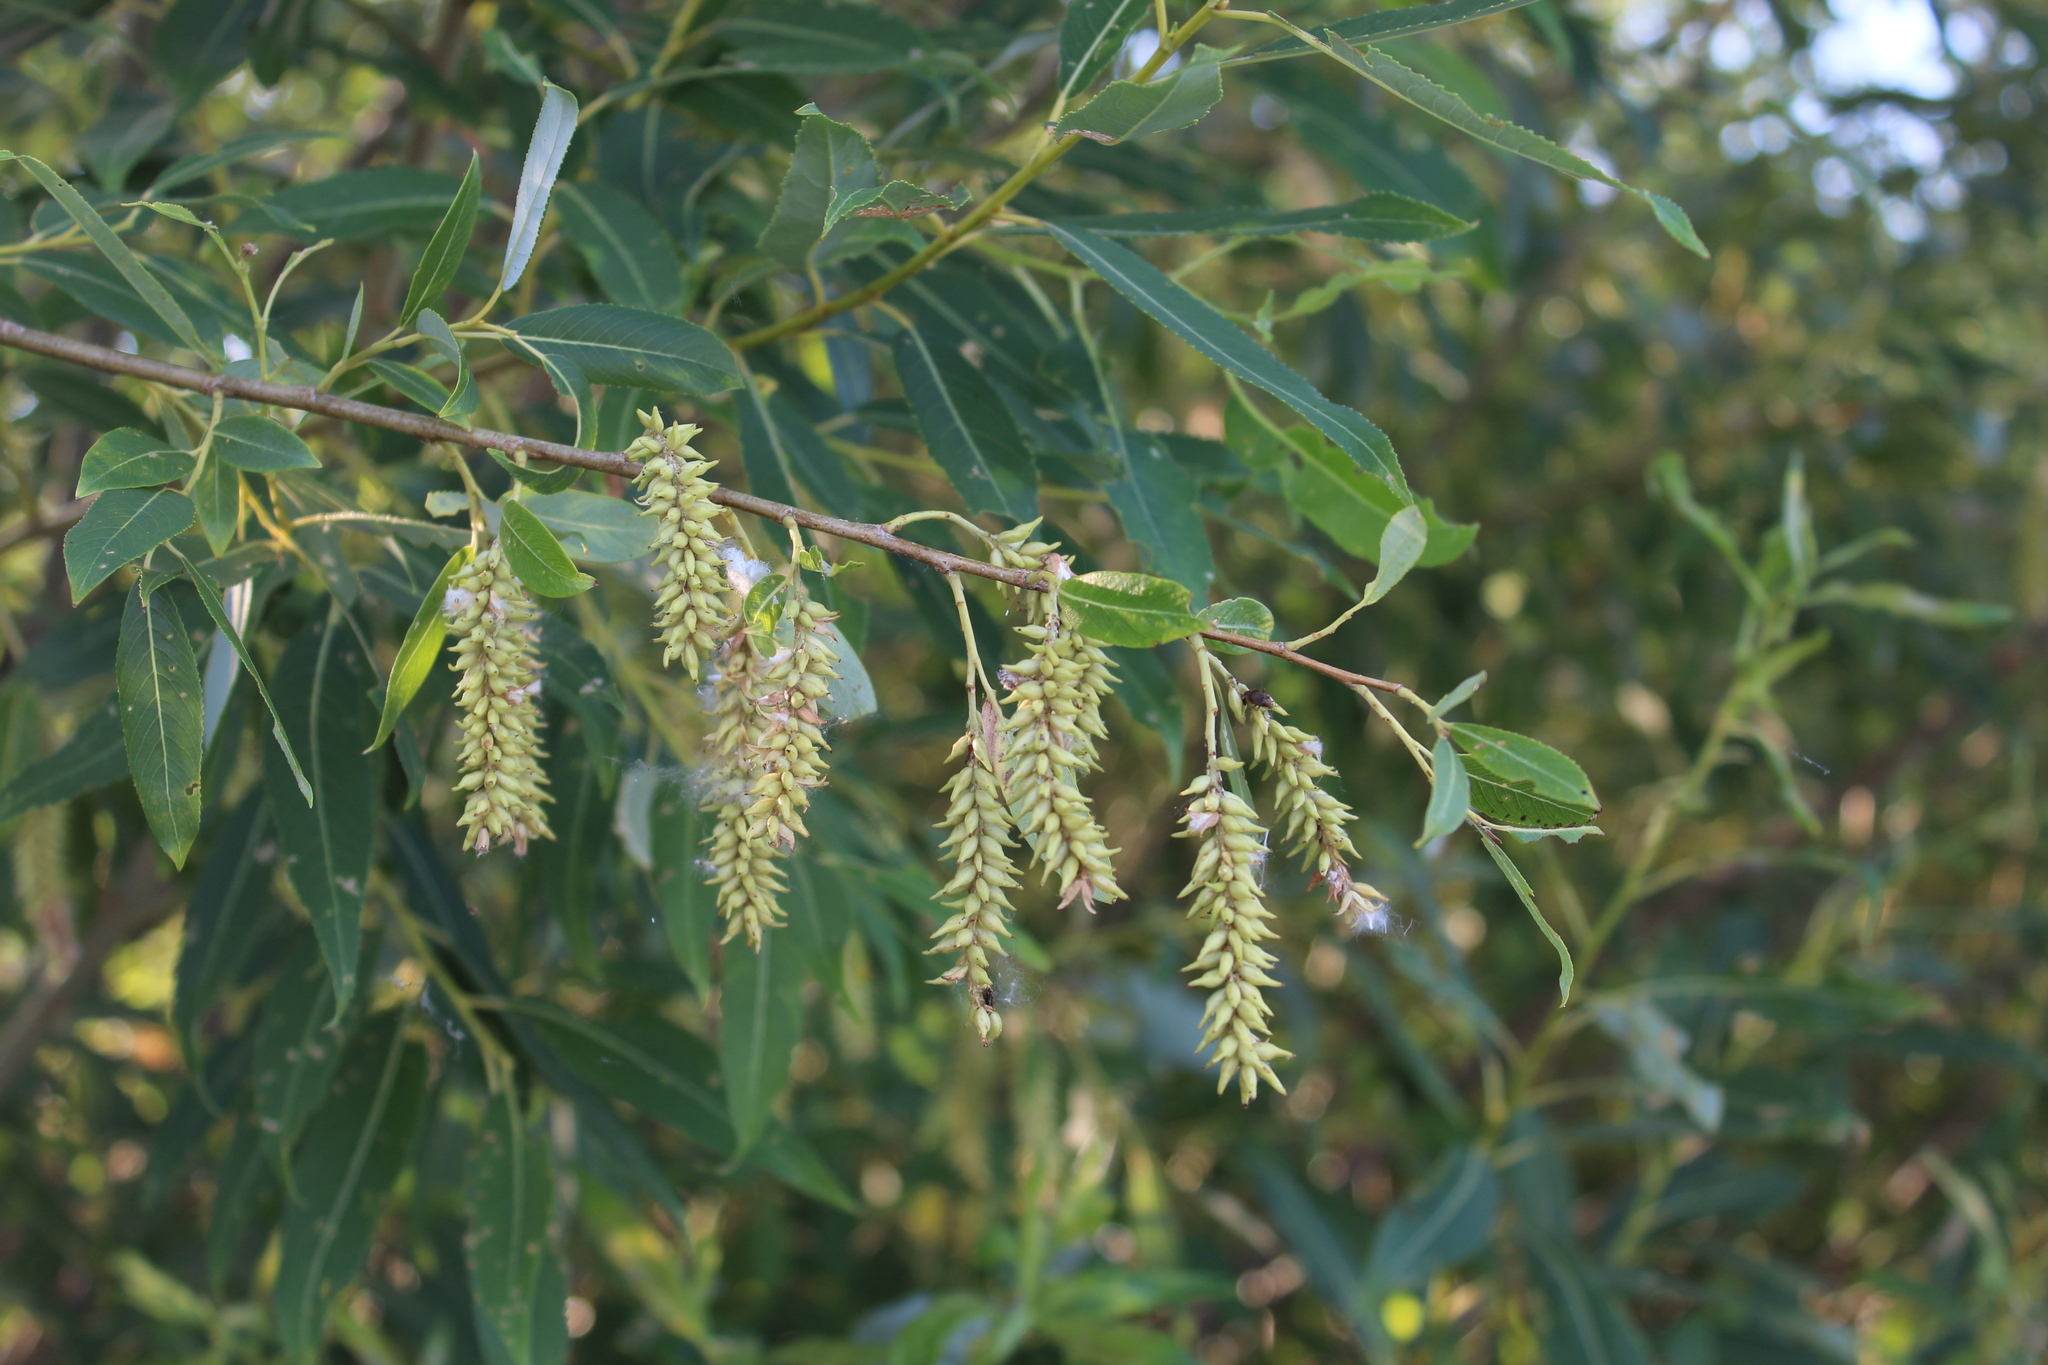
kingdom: Plantae
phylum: Tracheophyta
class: Magnoliopsida
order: Malpighiales
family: Salicaceae
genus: Salix
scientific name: Salix triandra
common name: Almond willow
